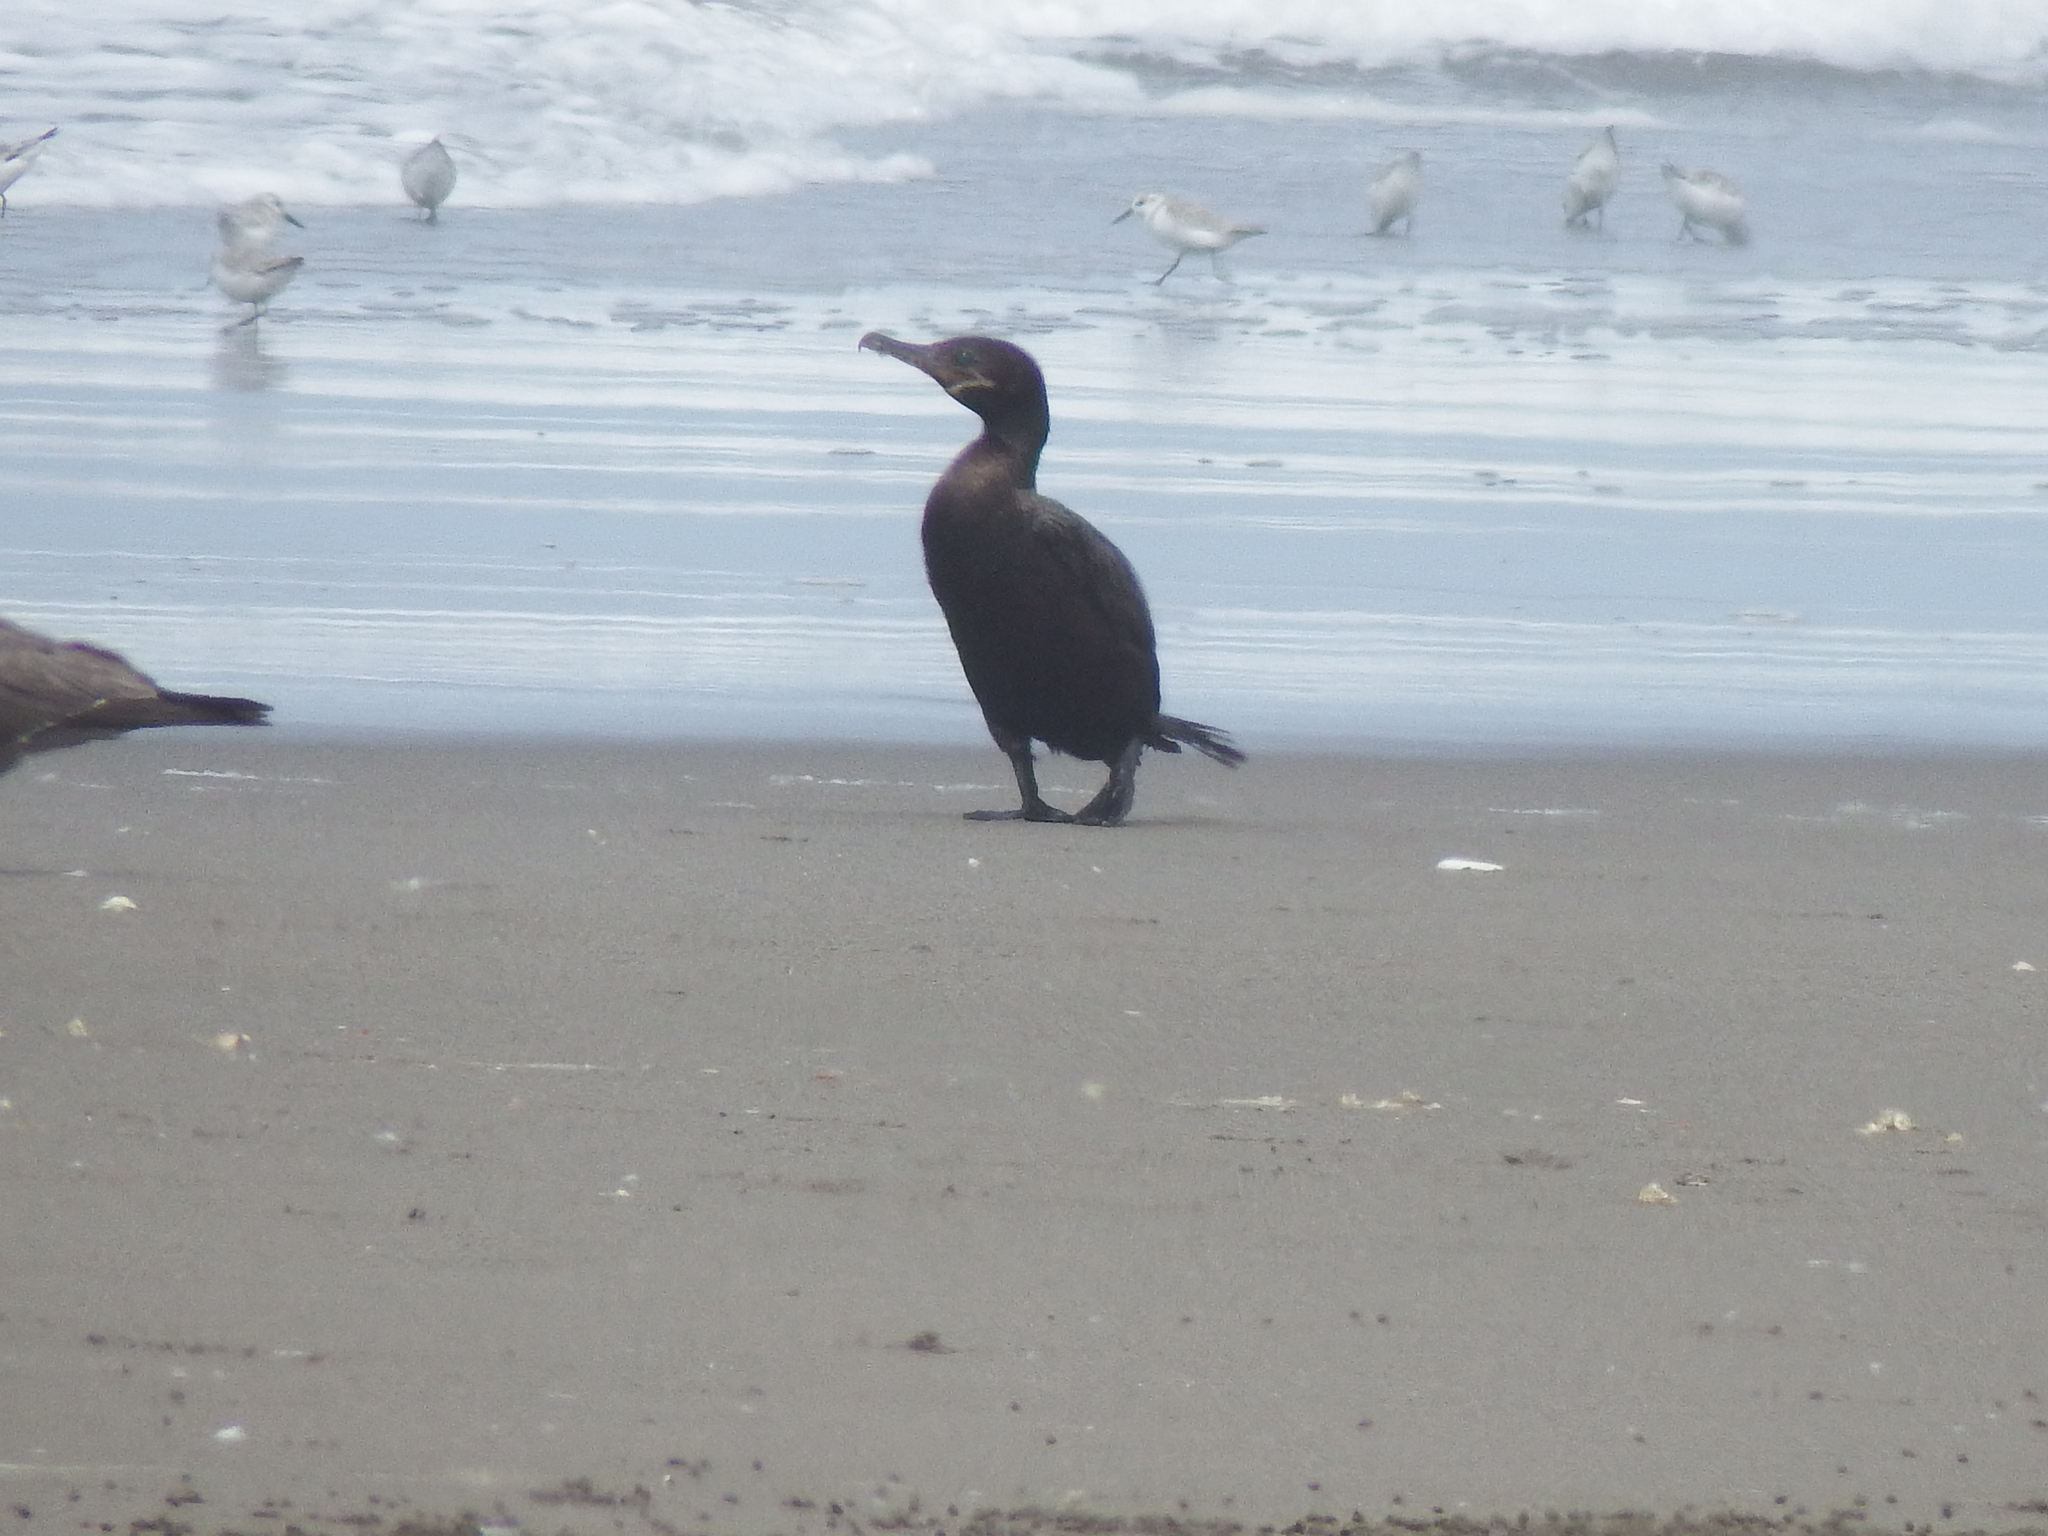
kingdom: Animalia
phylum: Chordata
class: Aves
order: Suliformes
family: Phalacrocoracidae
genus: Phalacrocorax
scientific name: Phalacrocorax brasilianus
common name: Neotropic cormorant
